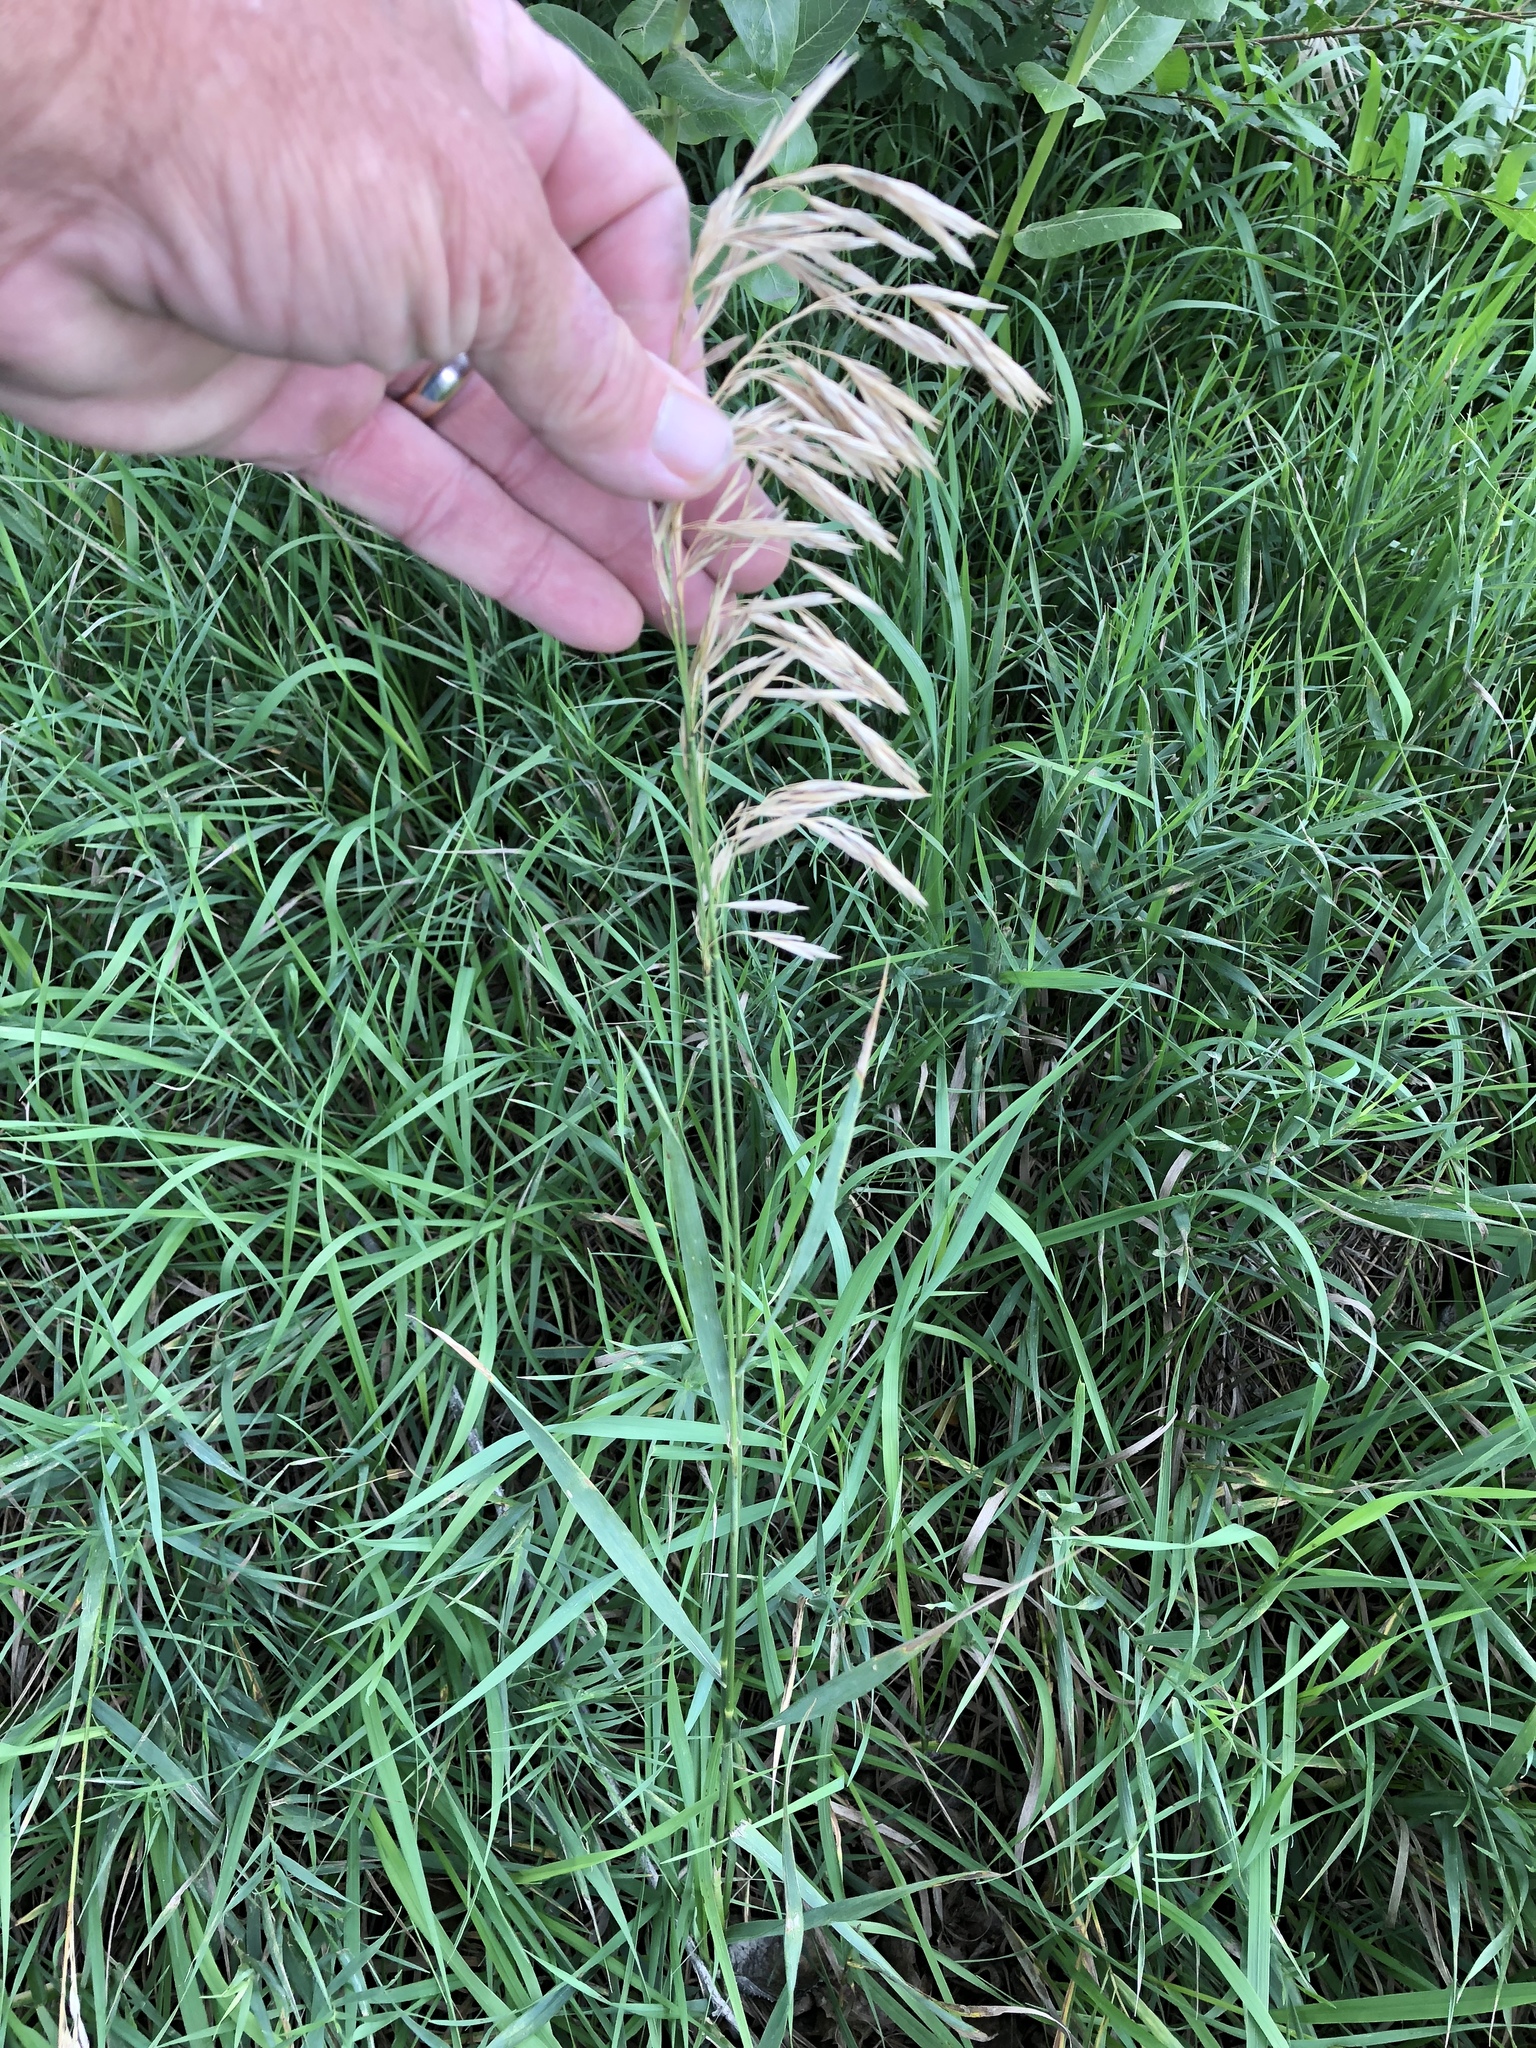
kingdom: Plantae
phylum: Tracheophyta
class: Liliopsida
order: Poales
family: Poaceae
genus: Bromus
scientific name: Bromus inermis
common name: Smooth brome
